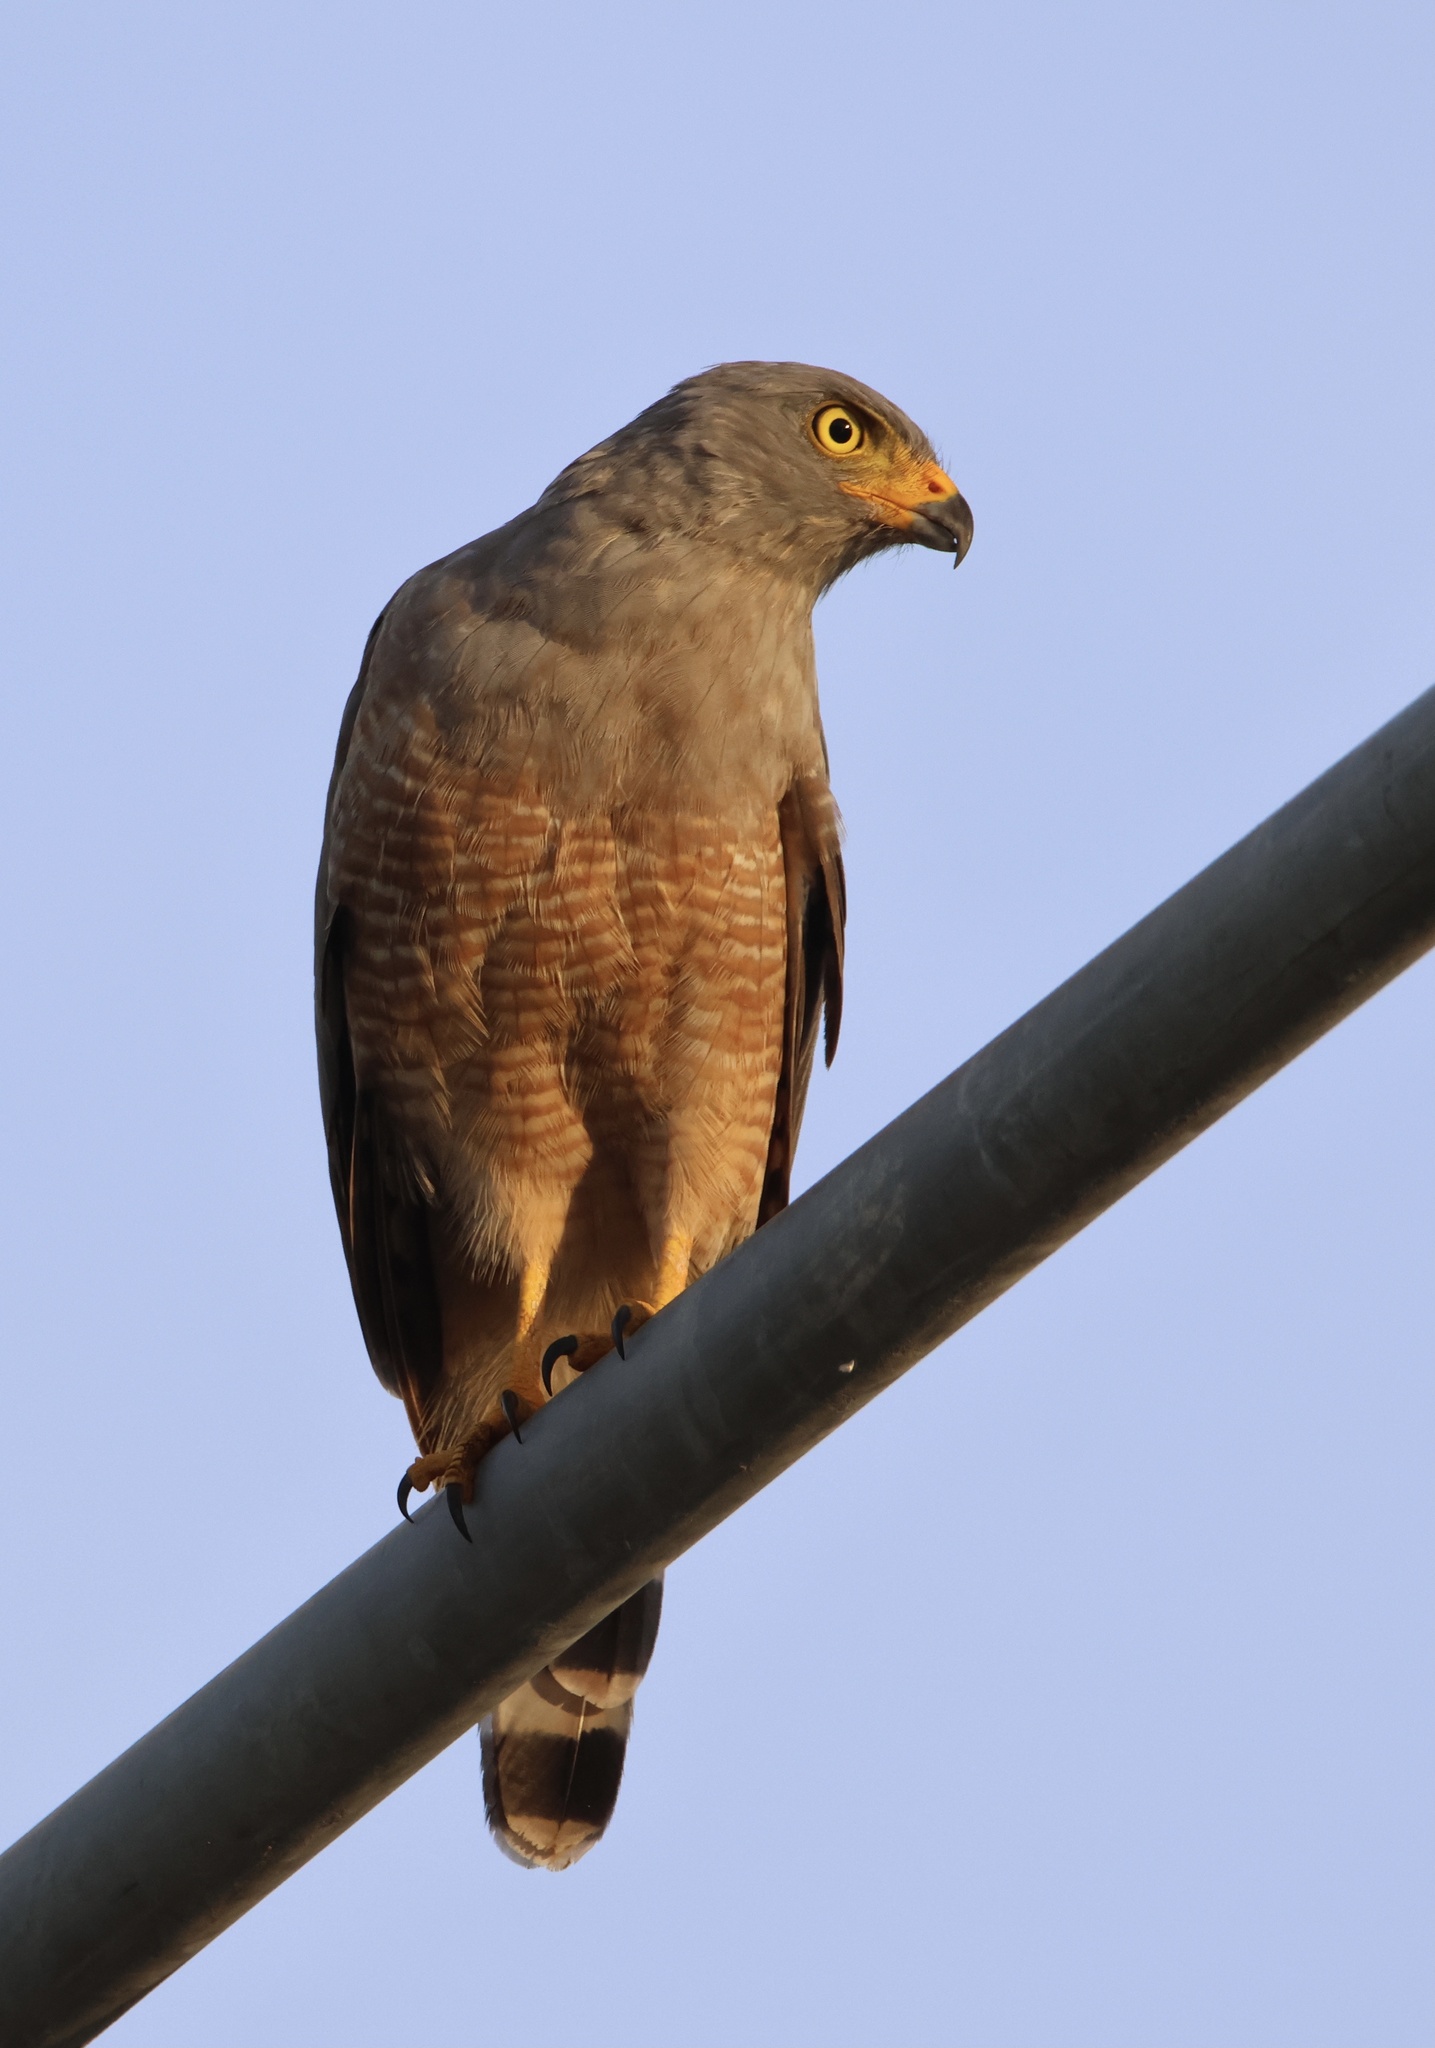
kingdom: Animalia
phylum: Chordata
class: Aves
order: Accipitriformes
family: Accipitridae
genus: Rupornis
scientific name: Rupornis magnirostris
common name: Roadside hawk
